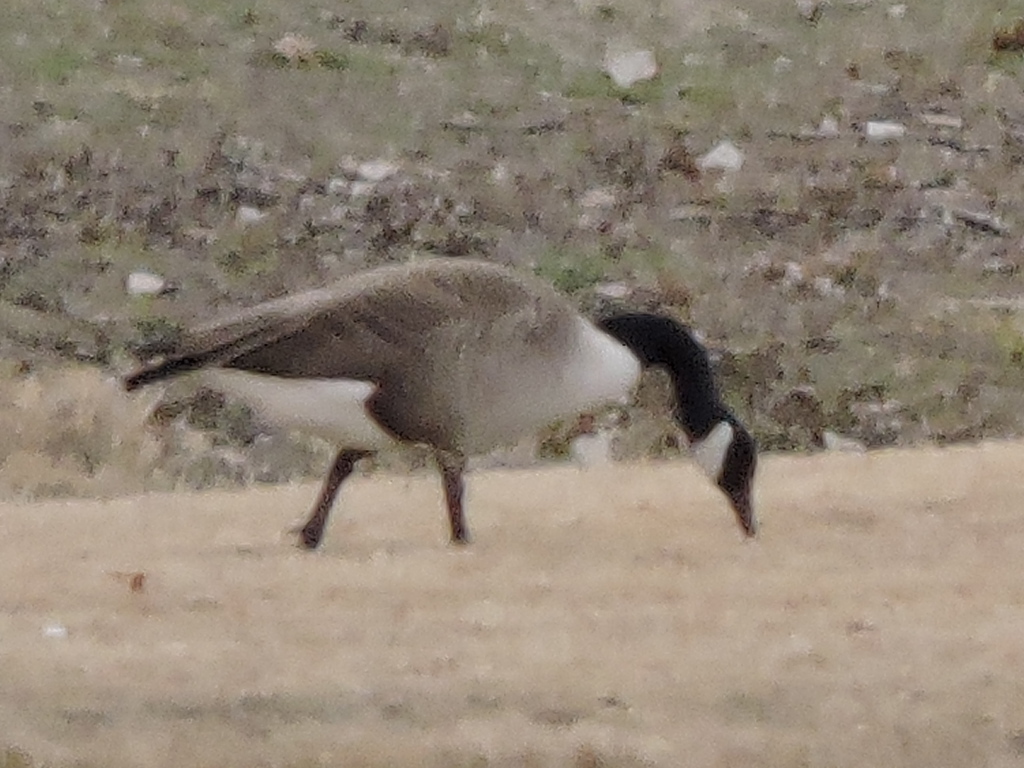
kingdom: Animalia
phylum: Chordata
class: Aves
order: Anseriformes
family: Anatidae
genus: Branta
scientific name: Branta canadensis
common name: Canada goose
